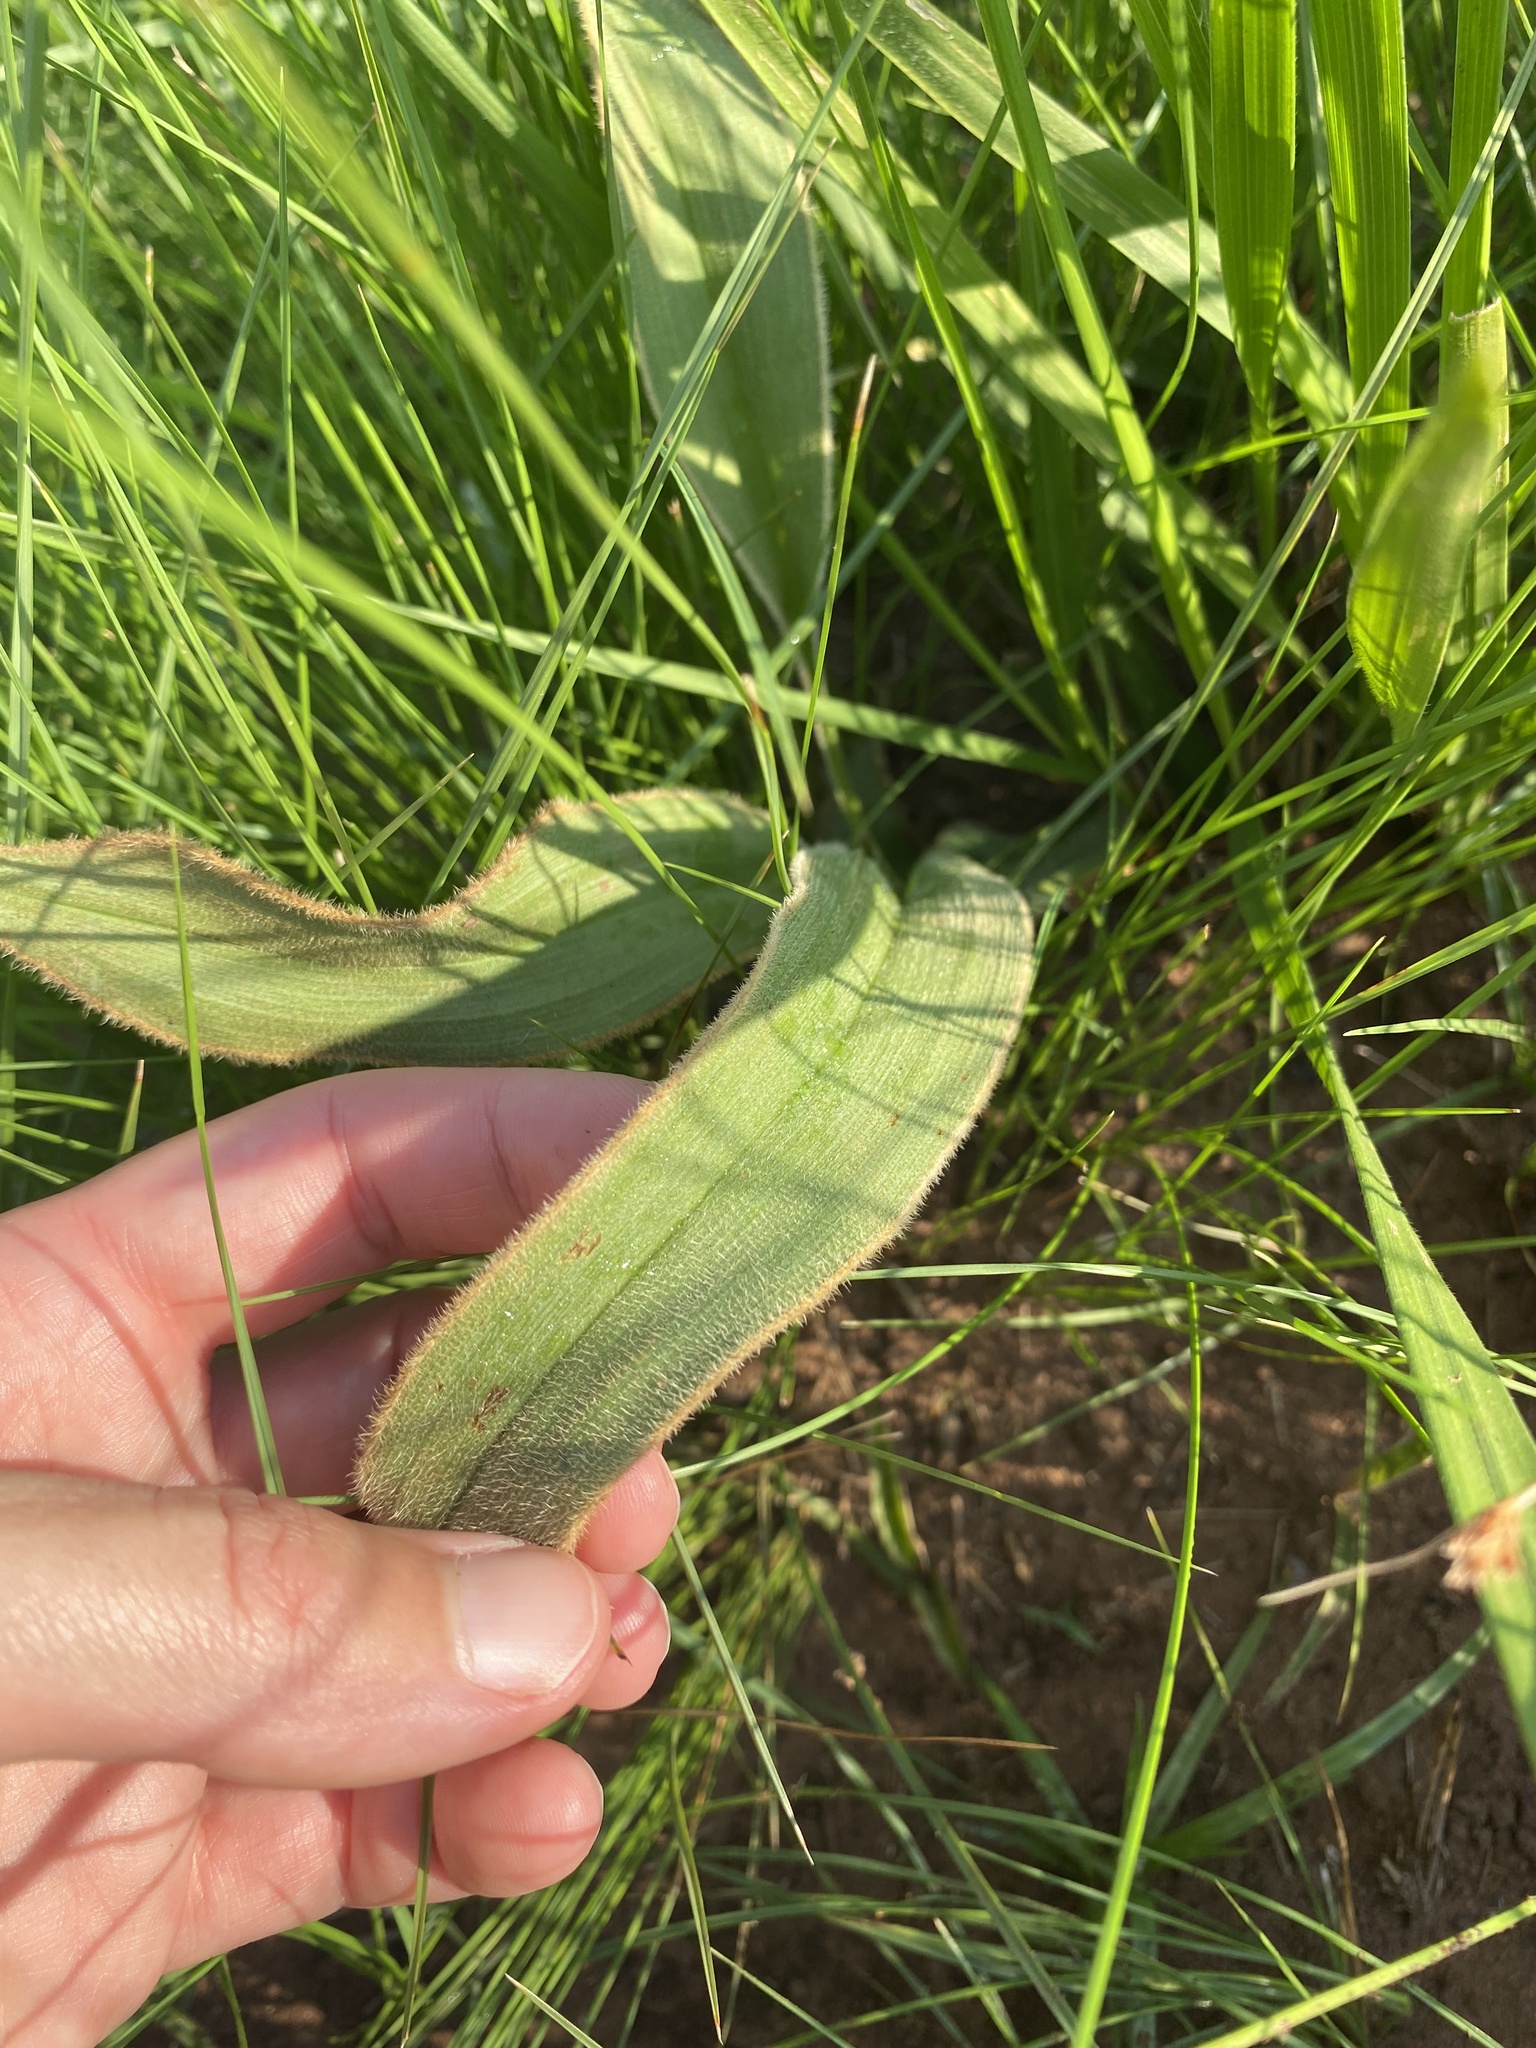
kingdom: Plantae
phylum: Tracheophyta
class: Liliopsida
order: Asparagales
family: Hypoxidaceae
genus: Hypoxis
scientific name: Hypoxis costata
